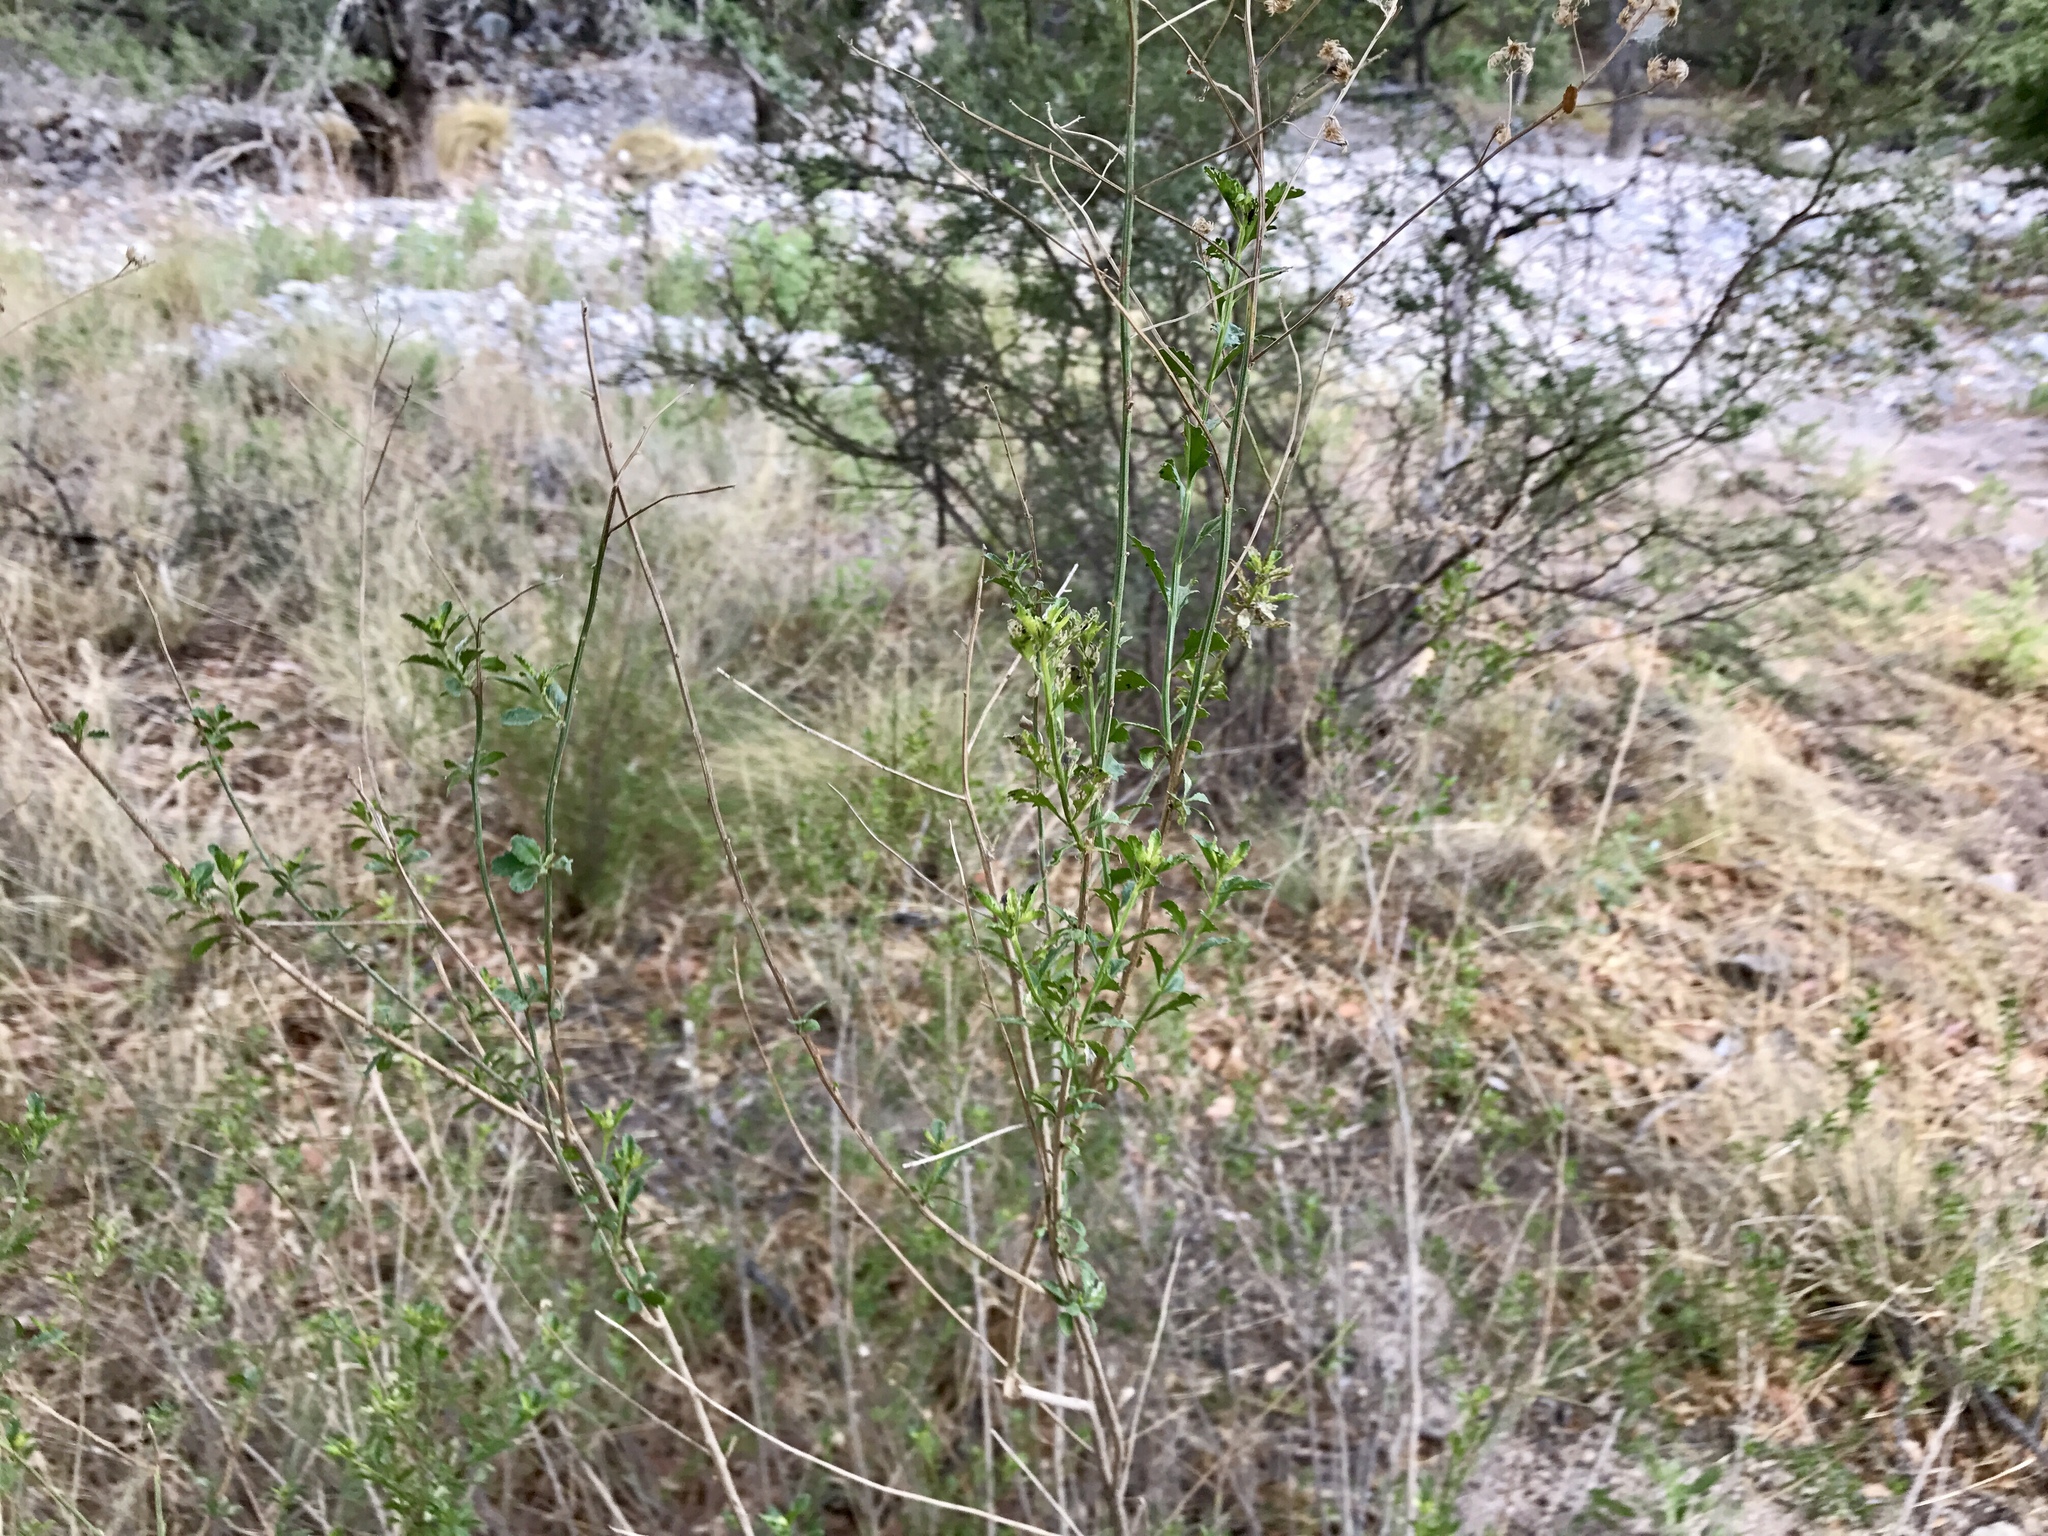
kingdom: Plantae
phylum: Tracheophyta
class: Magnoliopsida
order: Asterales
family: Asteraceae
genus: Baccharis
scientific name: Baccharis bigelovii
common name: Bigelow's false willow
